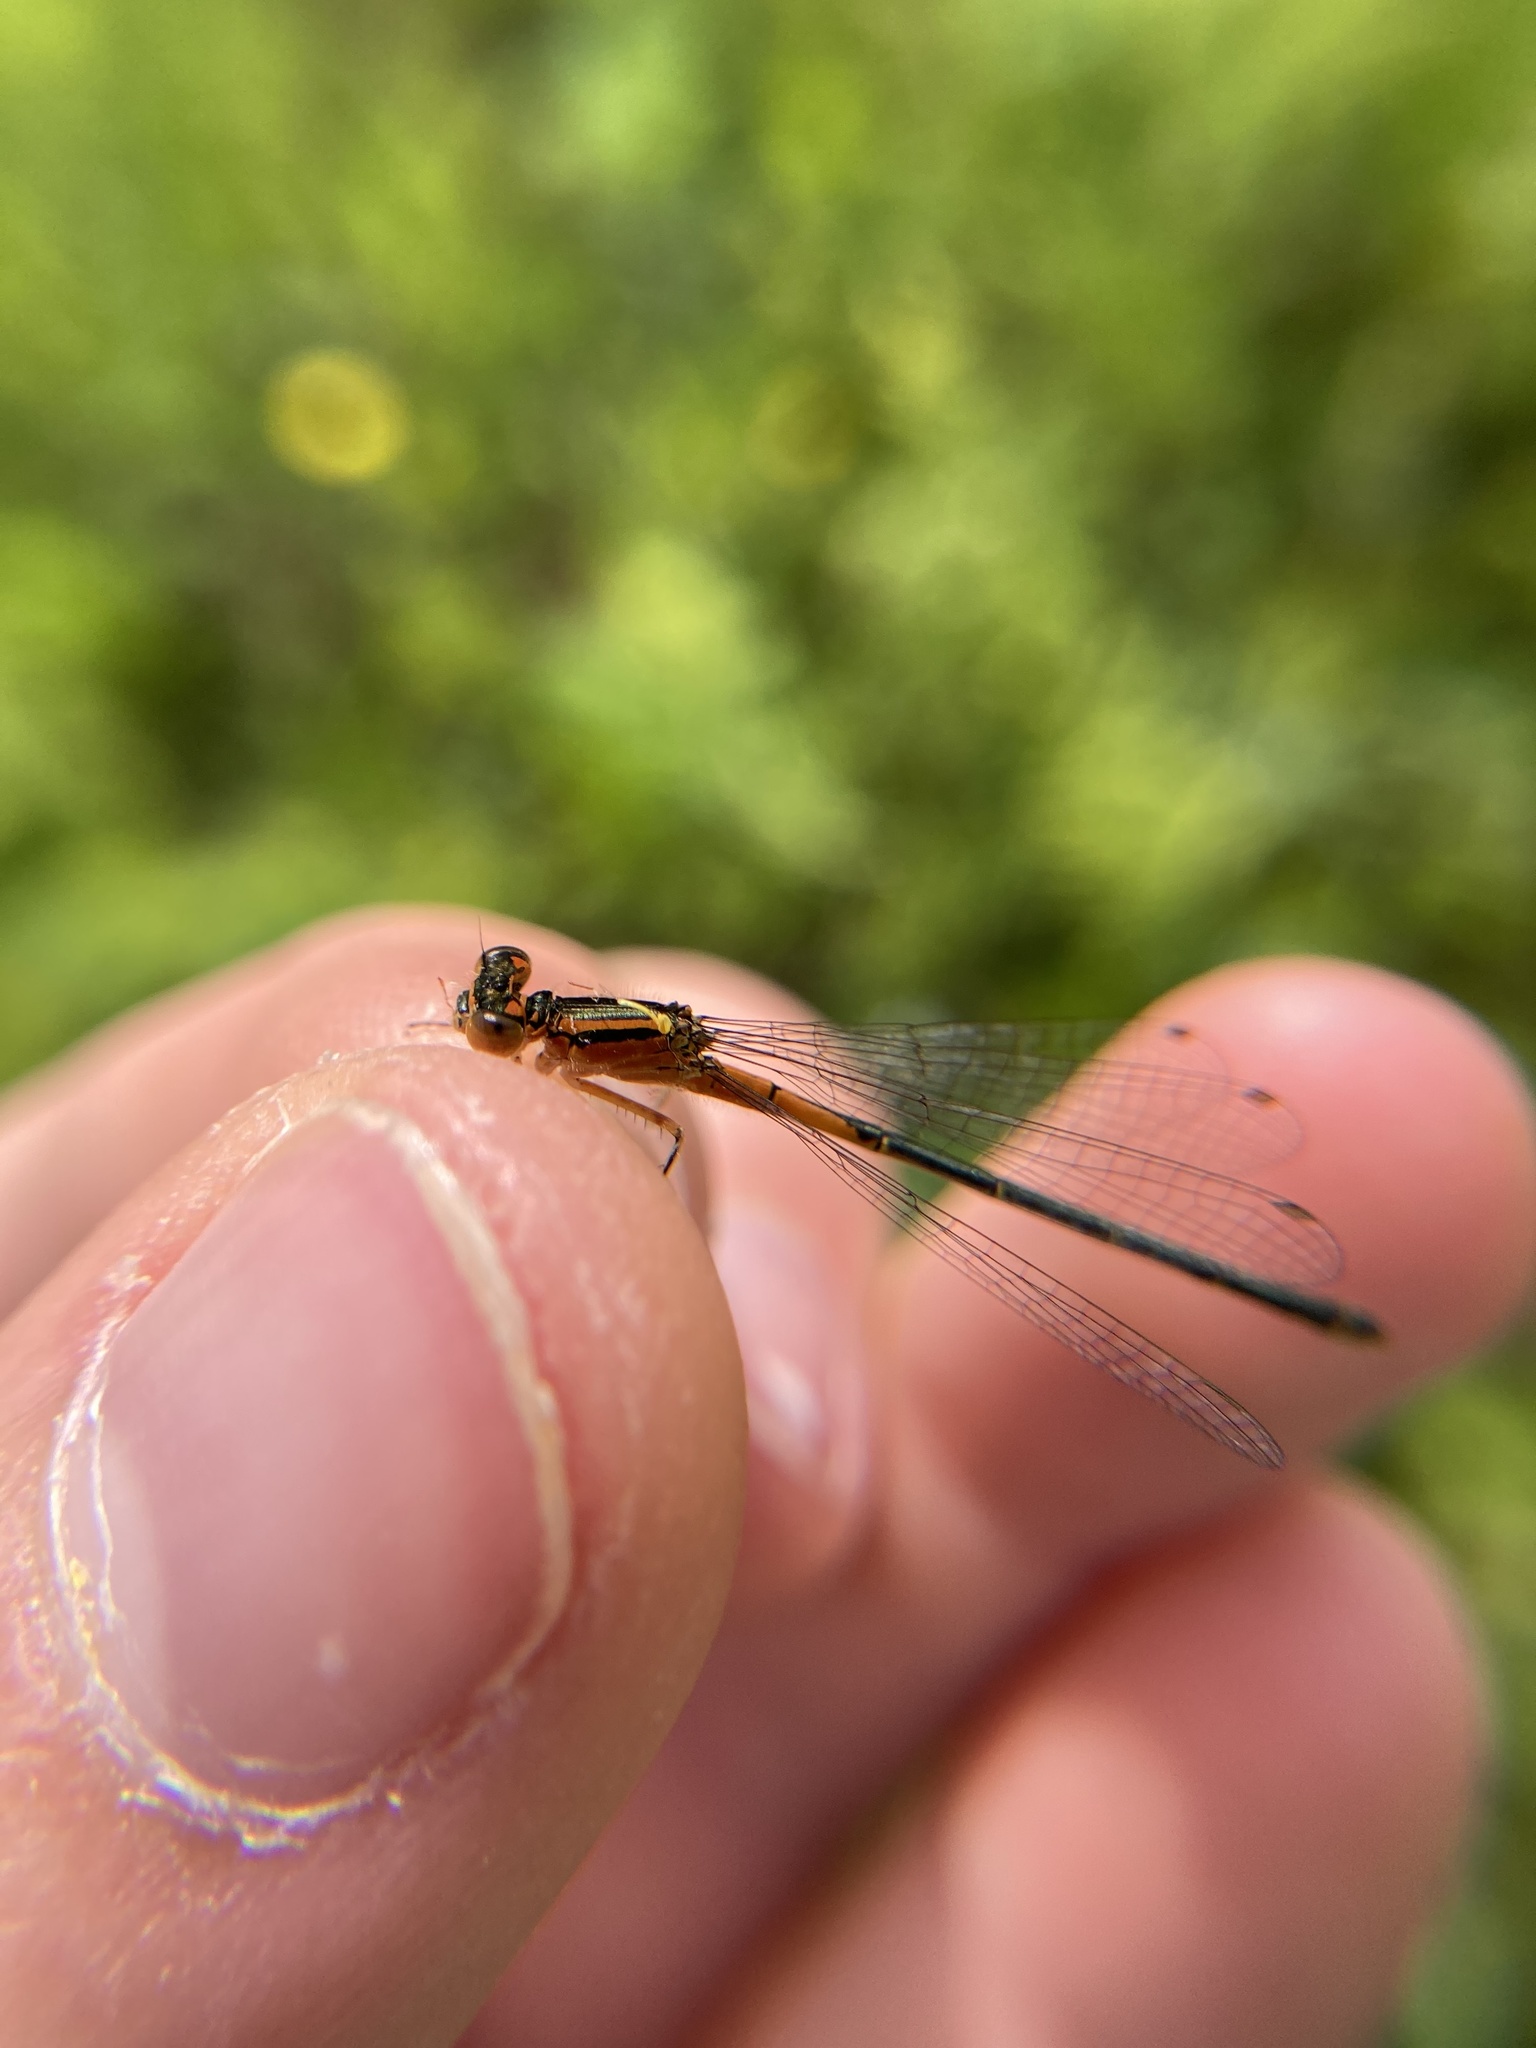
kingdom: Animalia
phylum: Arthropoda
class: Insecta
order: Odonata
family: Coenagrionidae
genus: Ischnura
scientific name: Ischnura verticalis
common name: Eastern forktail
